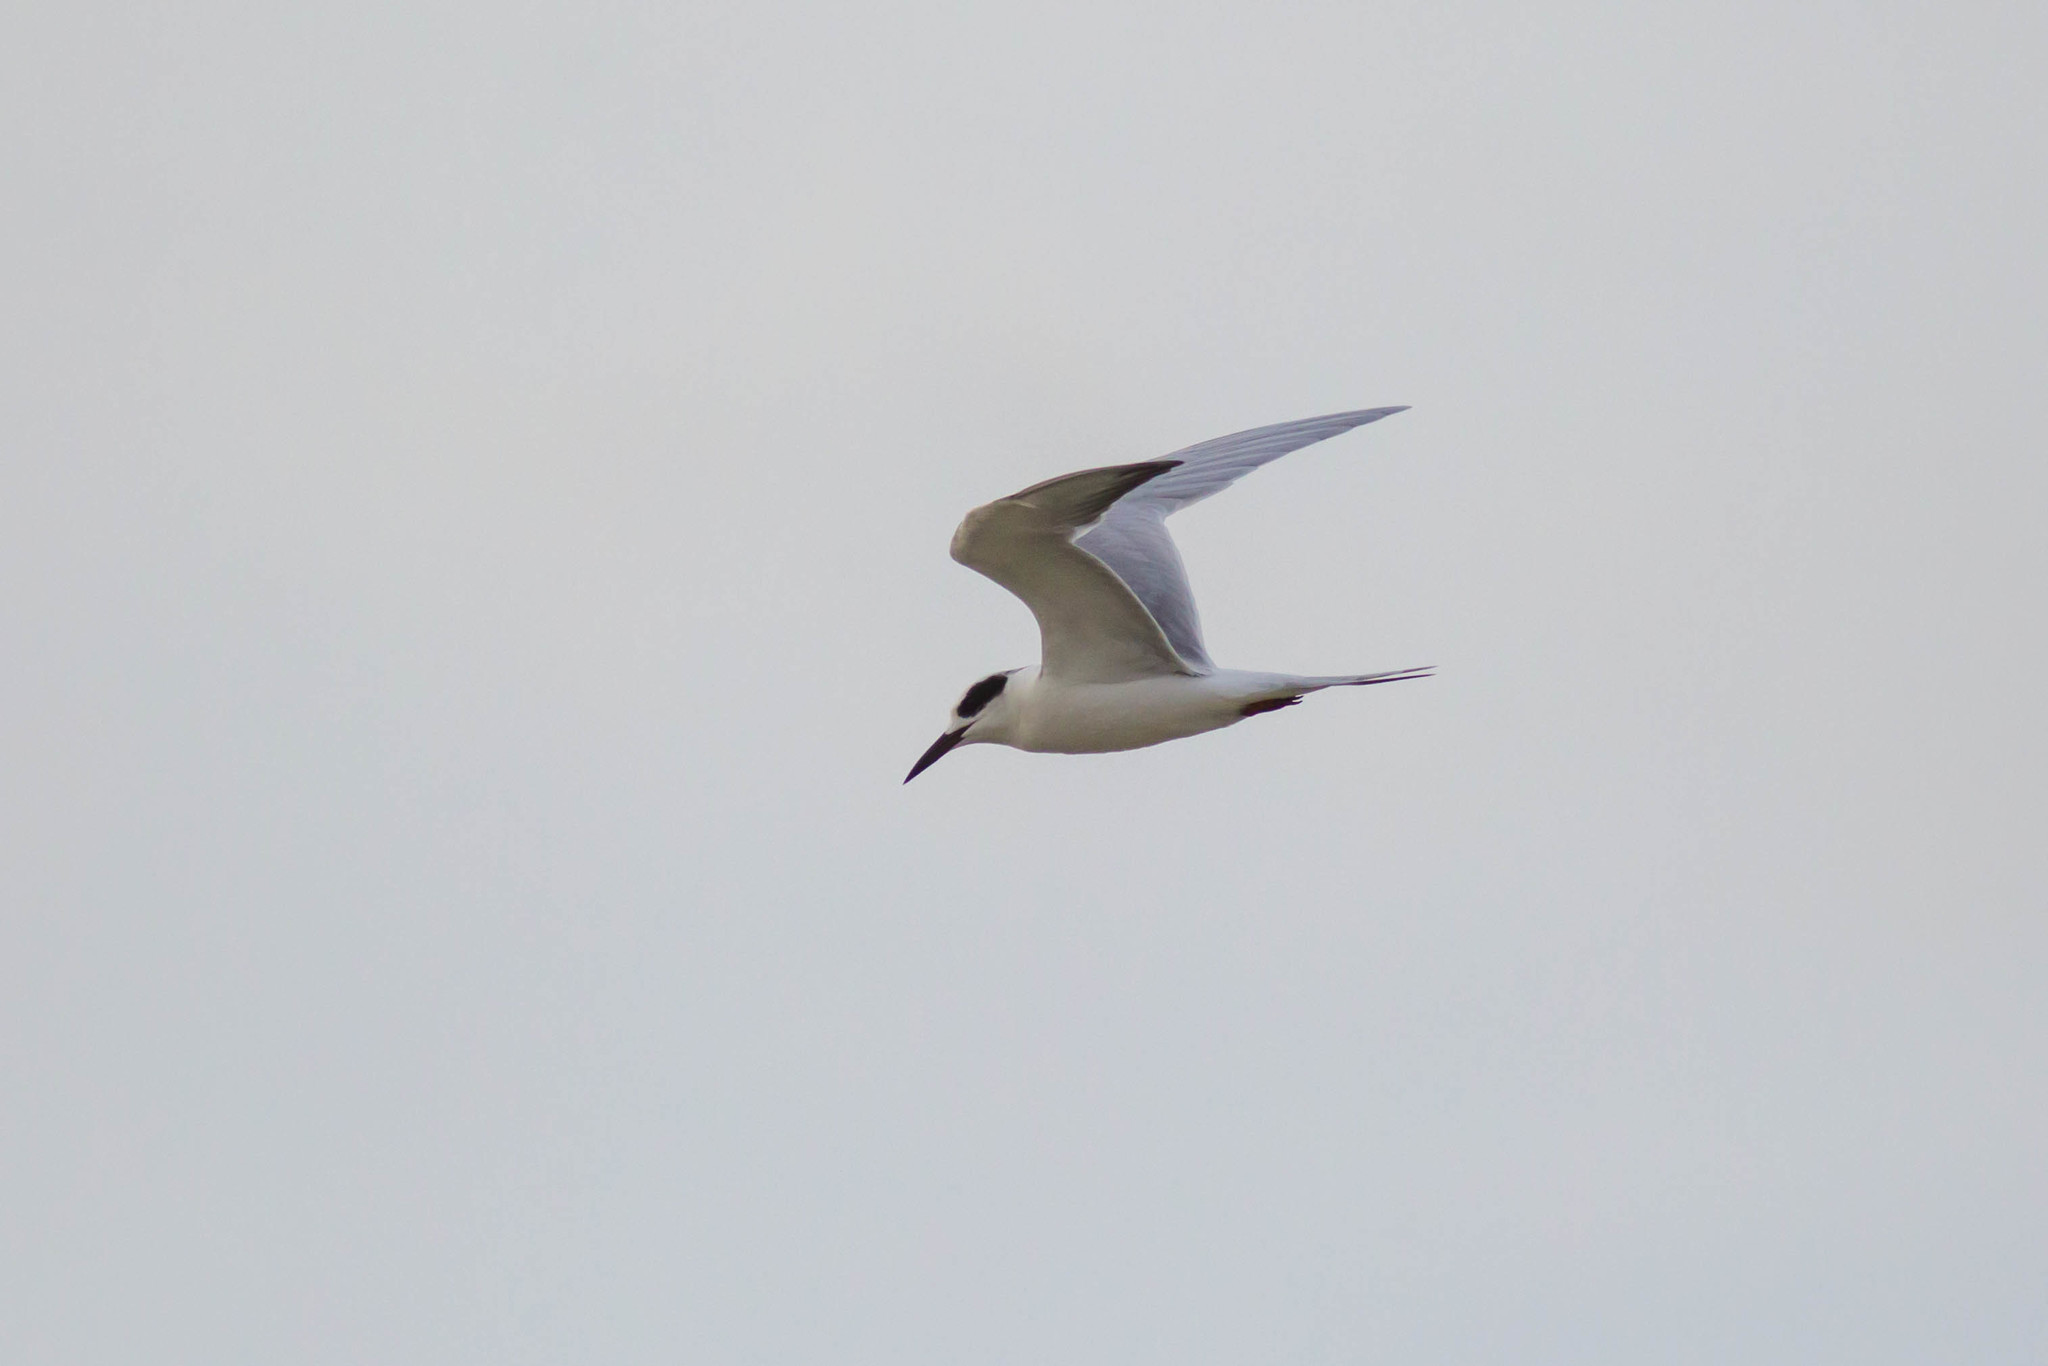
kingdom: Animalia
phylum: Chordata
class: Aves
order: Charadriiformes
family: Laridae
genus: Sterna
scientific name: Sterna forsteri
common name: Forster's tern
